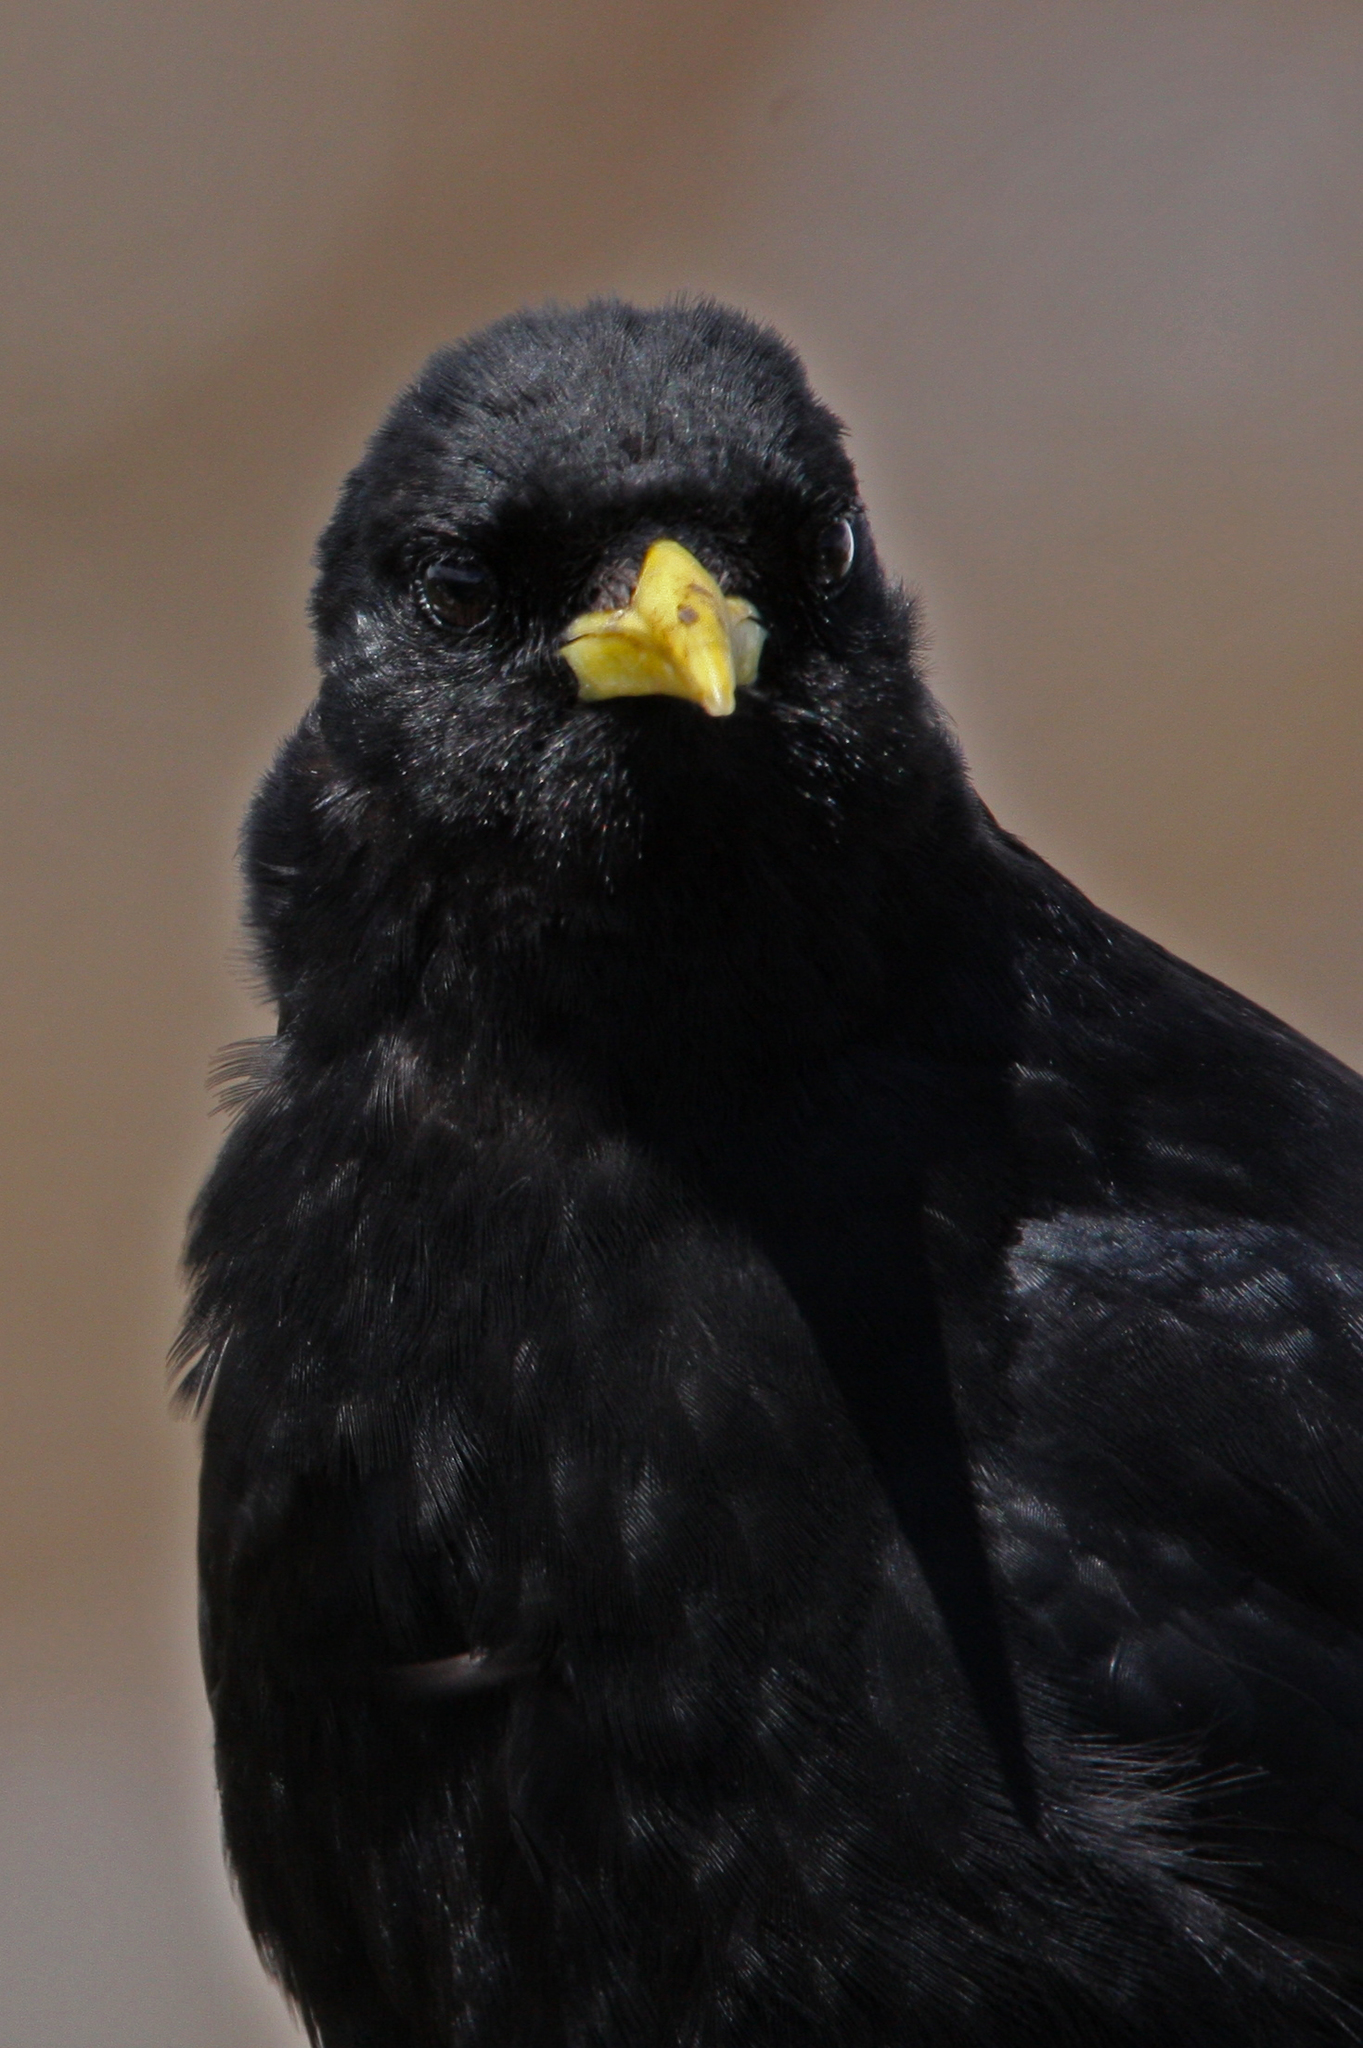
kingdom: Animalia
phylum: Chordata
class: Aves
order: Passeriformes
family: Corvidae
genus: Pyrrhocorax
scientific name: Pyrrhocorax graculus
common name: Alpine chough
